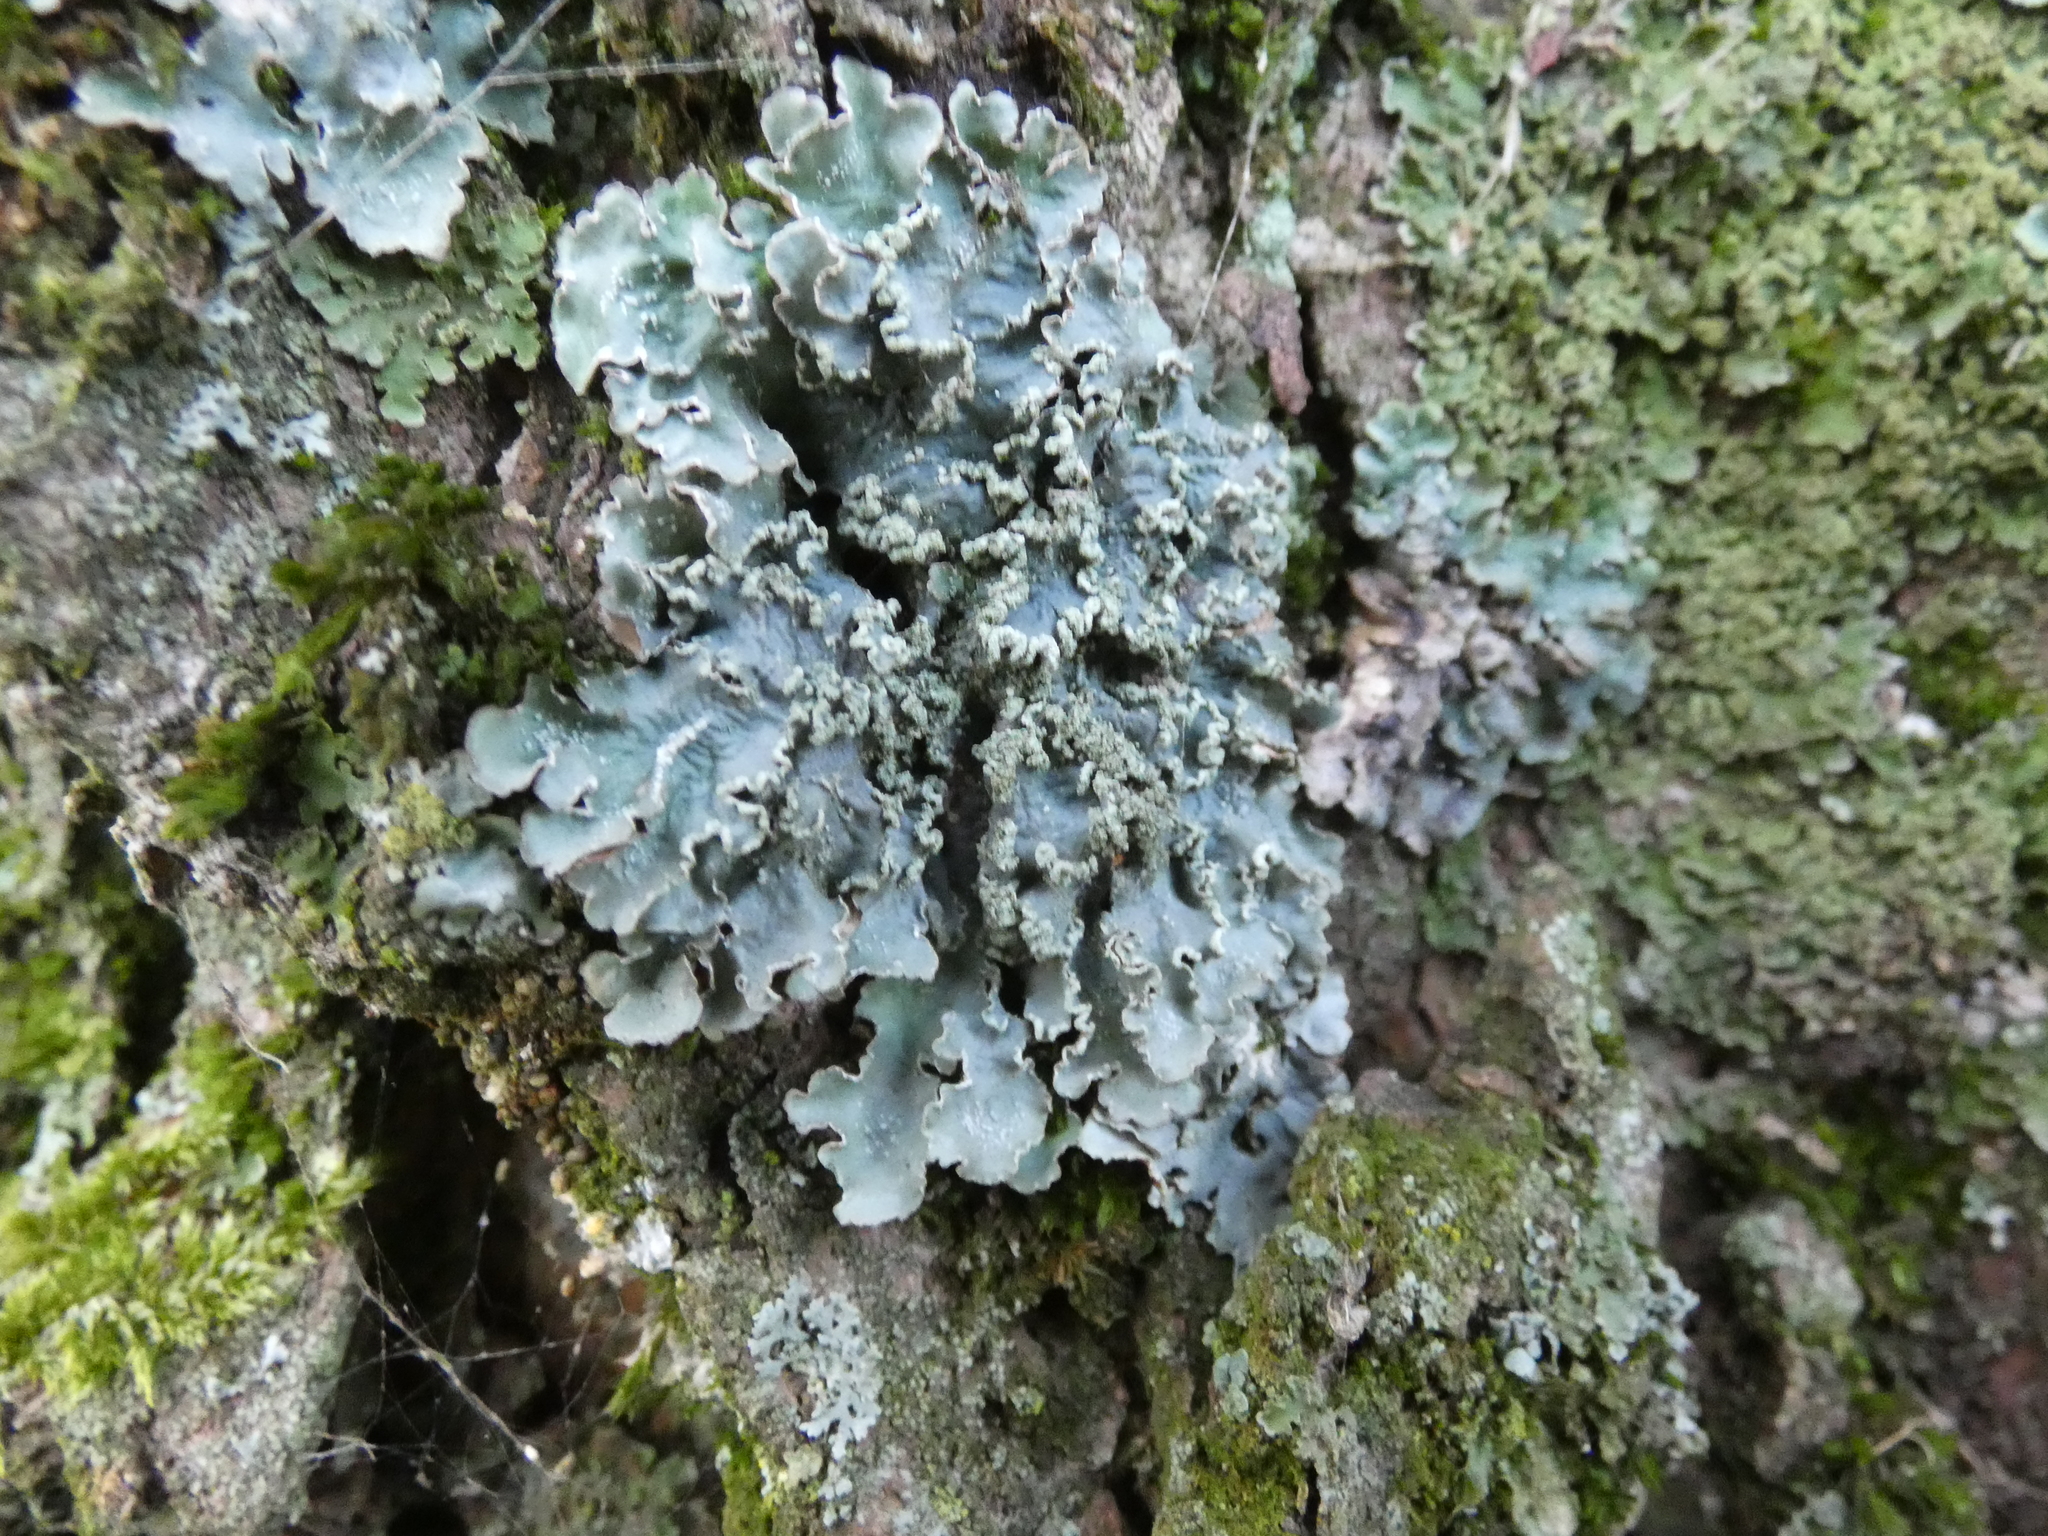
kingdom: Fungi
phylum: Ascomycota
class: Lecanoromycetes
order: Lecanorales
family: Parmeliaceae
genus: Punctelia
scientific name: Punctelia jeckeri
